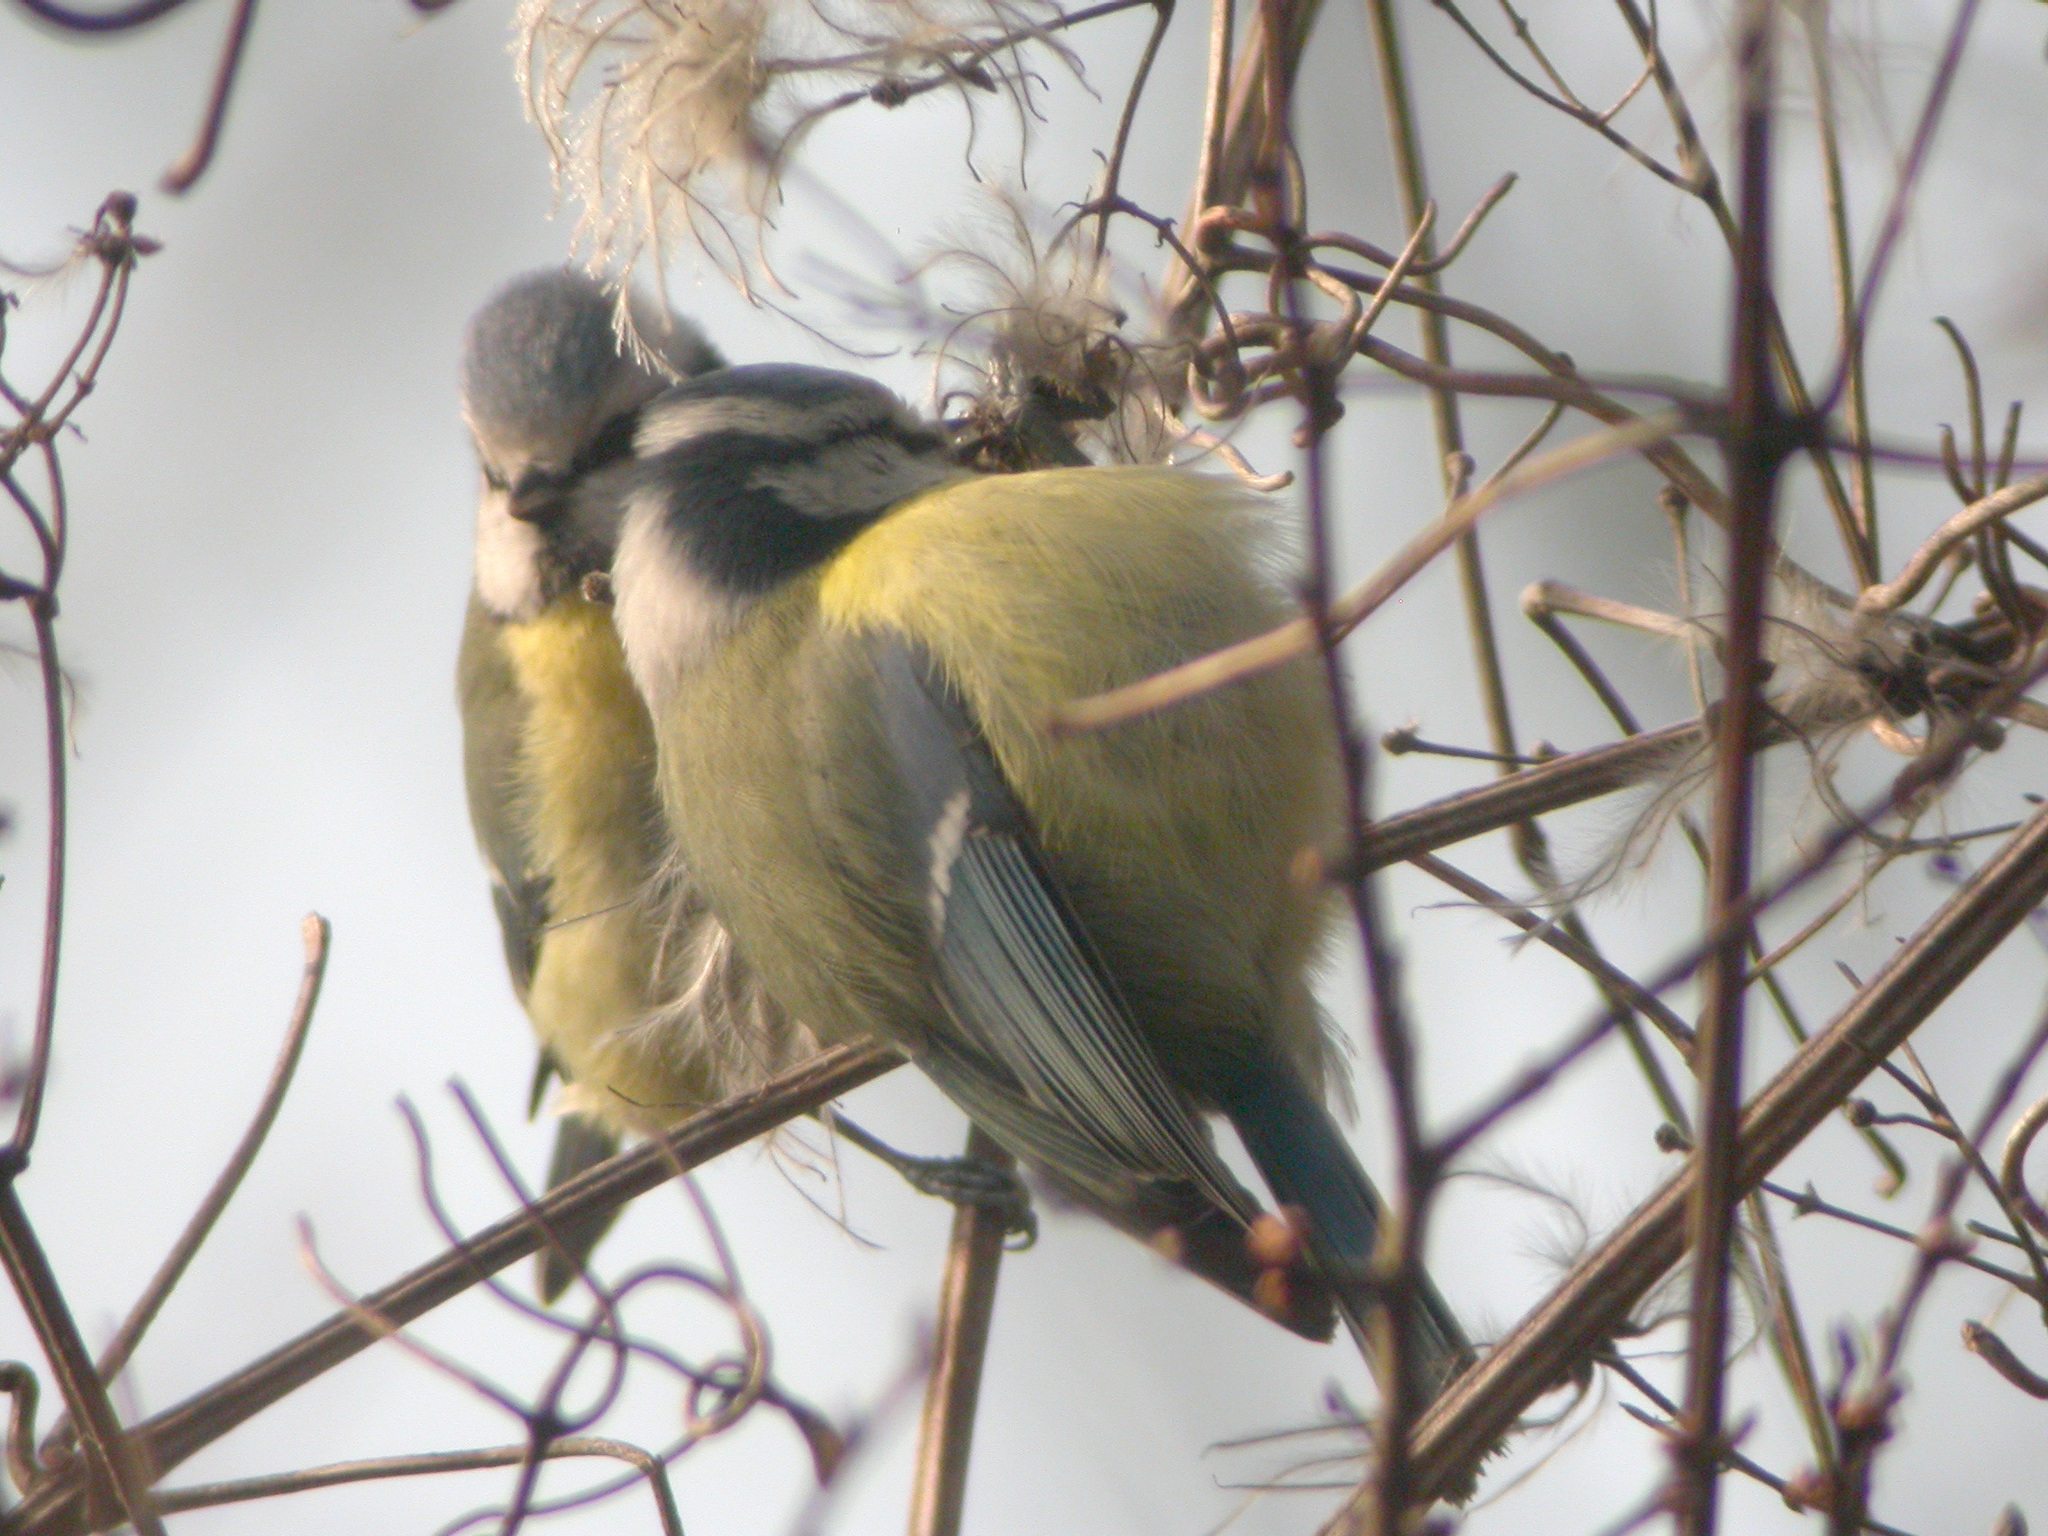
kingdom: Animalia
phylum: Chordata
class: Aves
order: Passeriformes
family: Paridae
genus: Cyanistes
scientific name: Cyanistes caeruleus
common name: Eurasian blue tit
